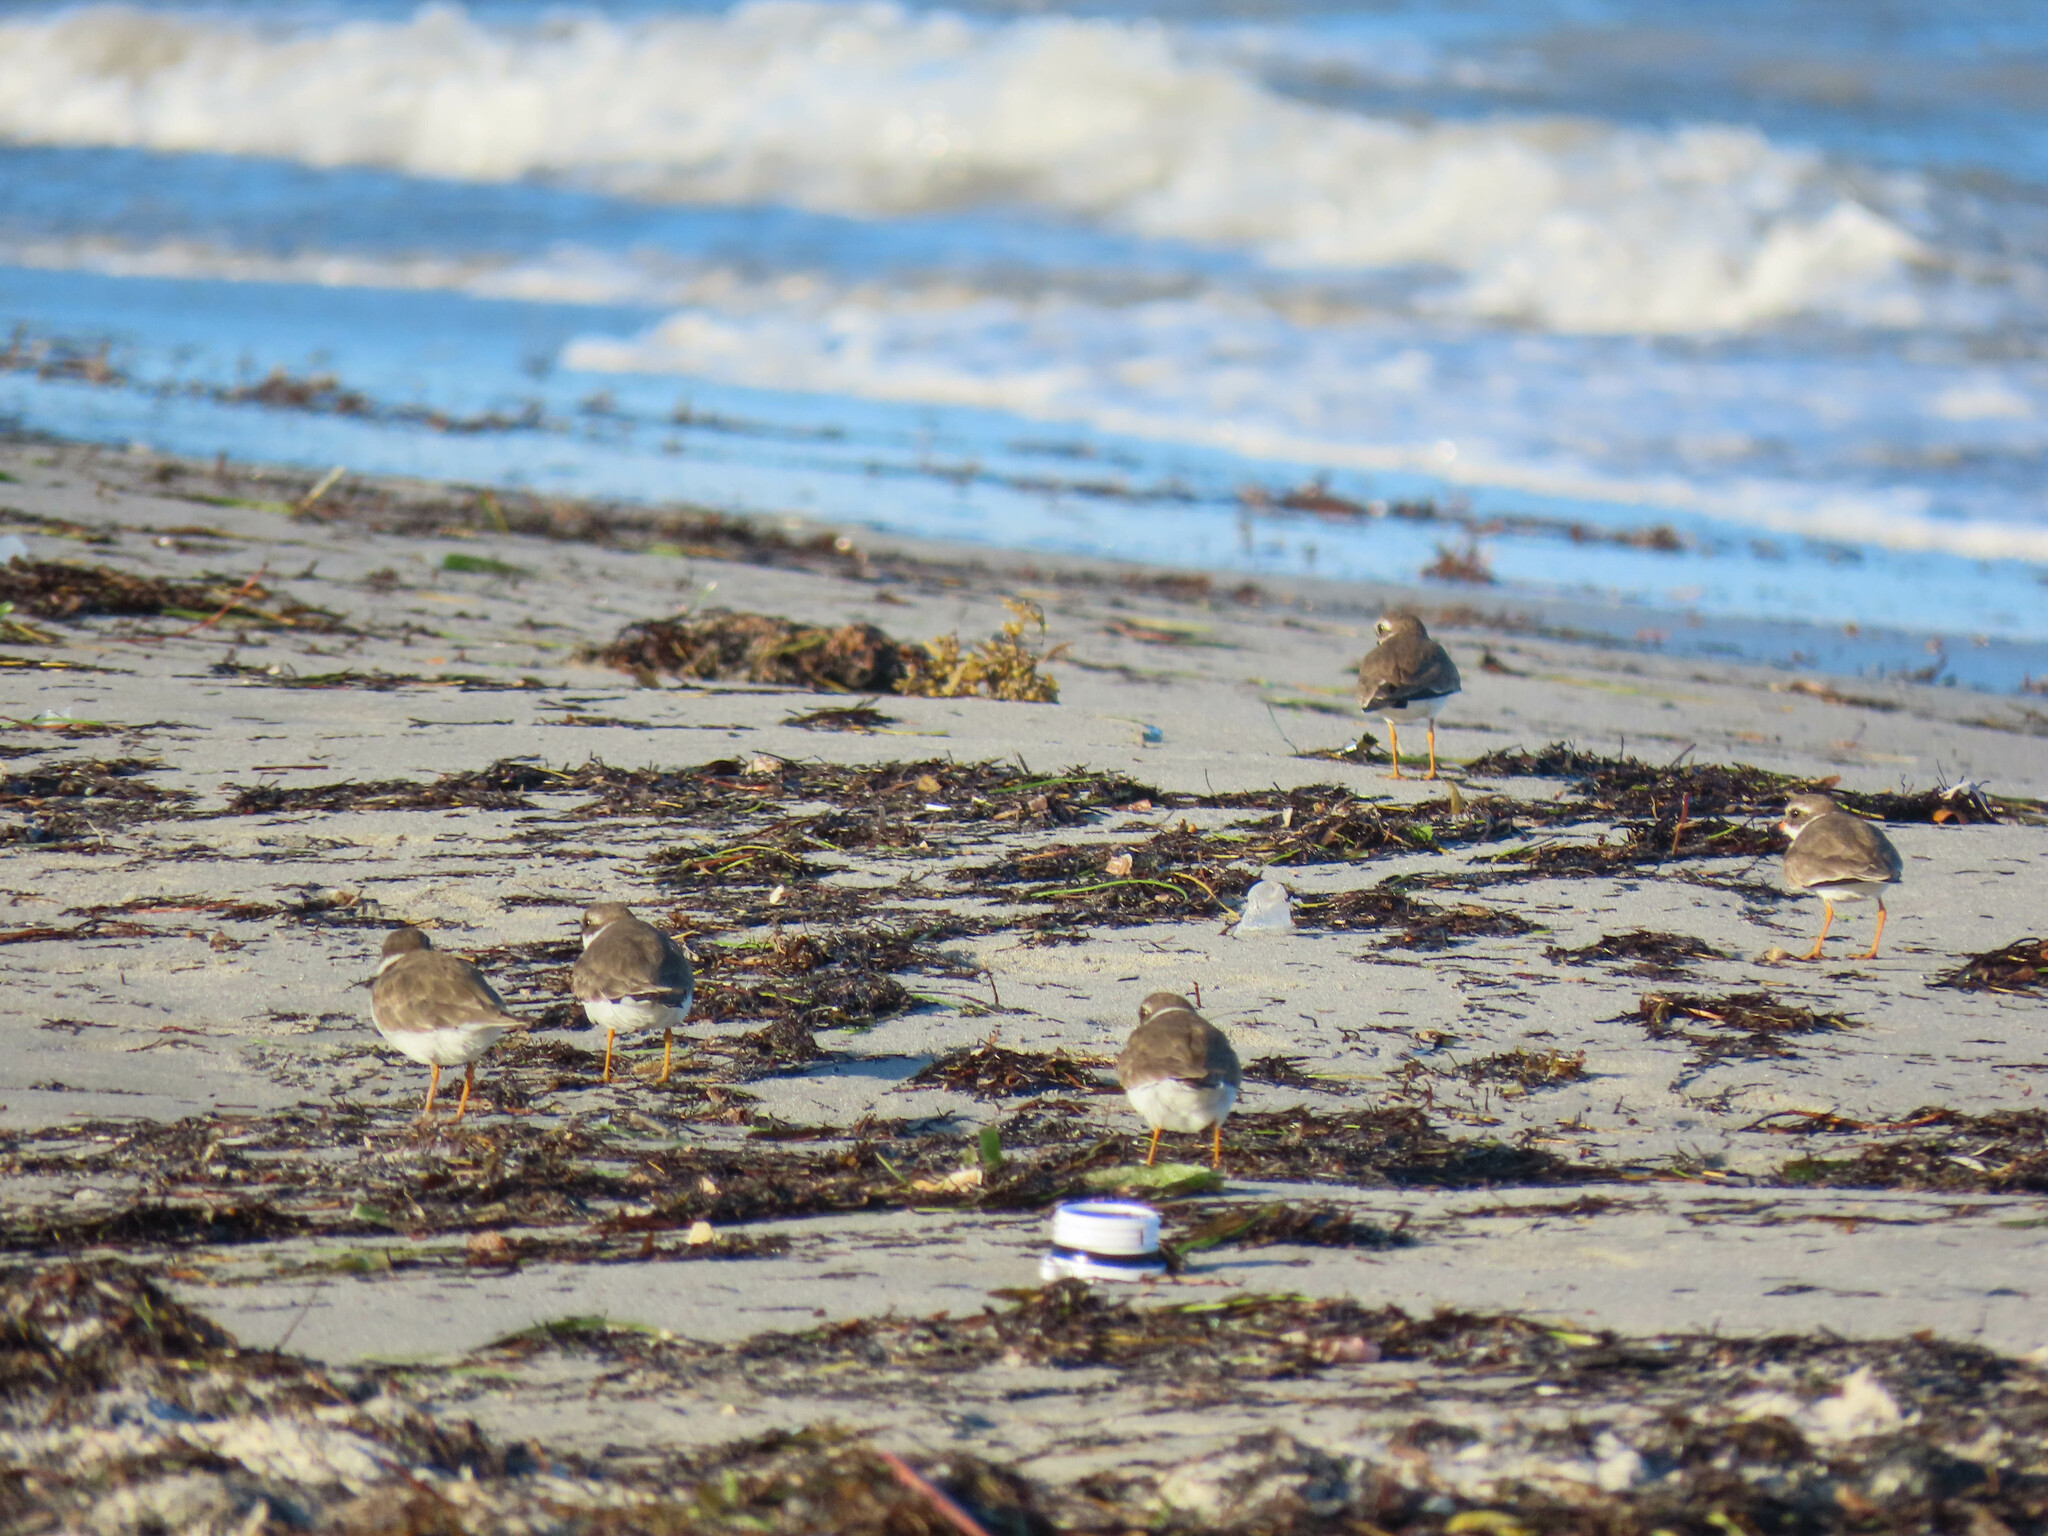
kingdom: Animalia
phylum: Chordata
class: Aves
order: Charadriiformes
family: Charadriidae
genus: Charadrius
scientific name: Charadrius semipalmatus
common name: Semipalmated plover
